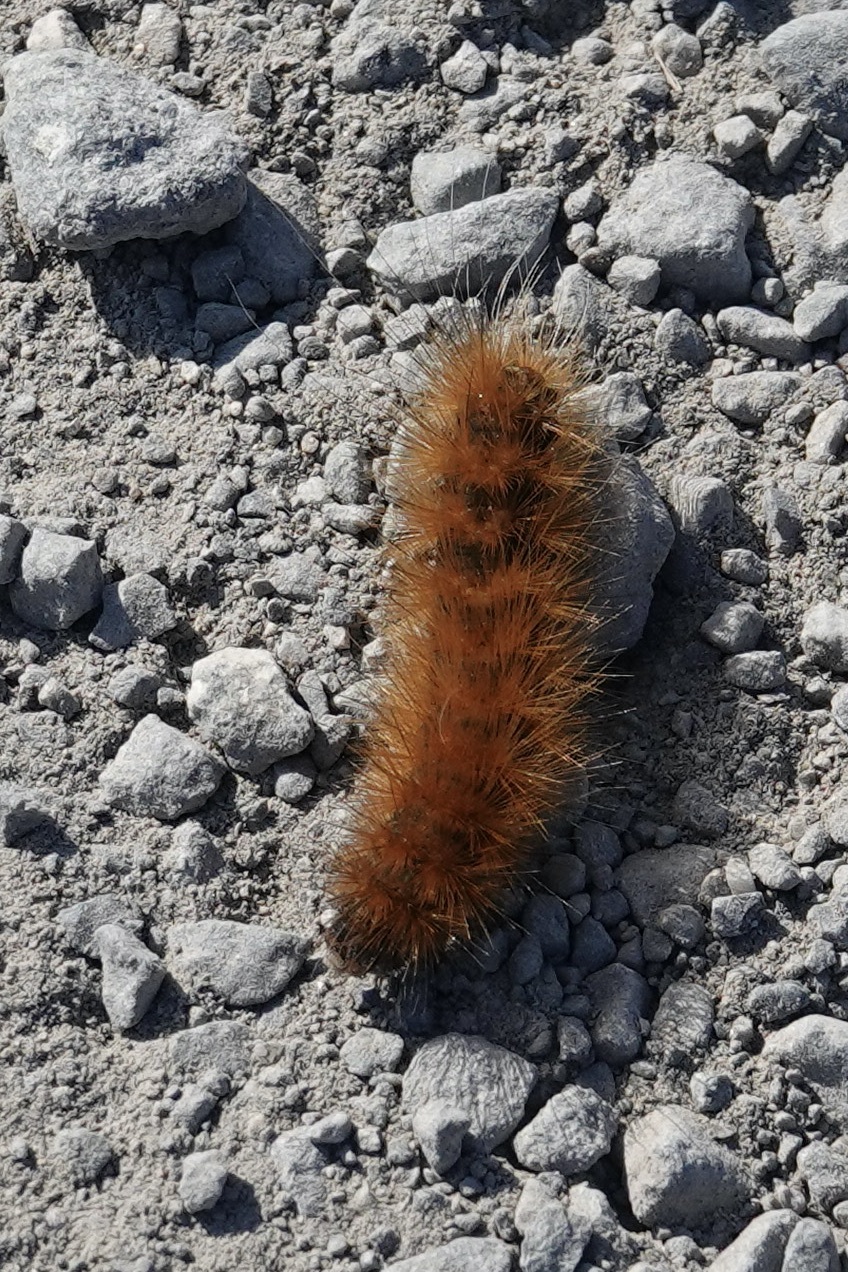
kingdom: Animalia
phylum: Arthropoda
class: Insecta
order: Lepidoptera
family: Erebidae
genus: Phragmatobia
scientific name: Phragmatobia fuliginosa
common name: Ruby tiger
